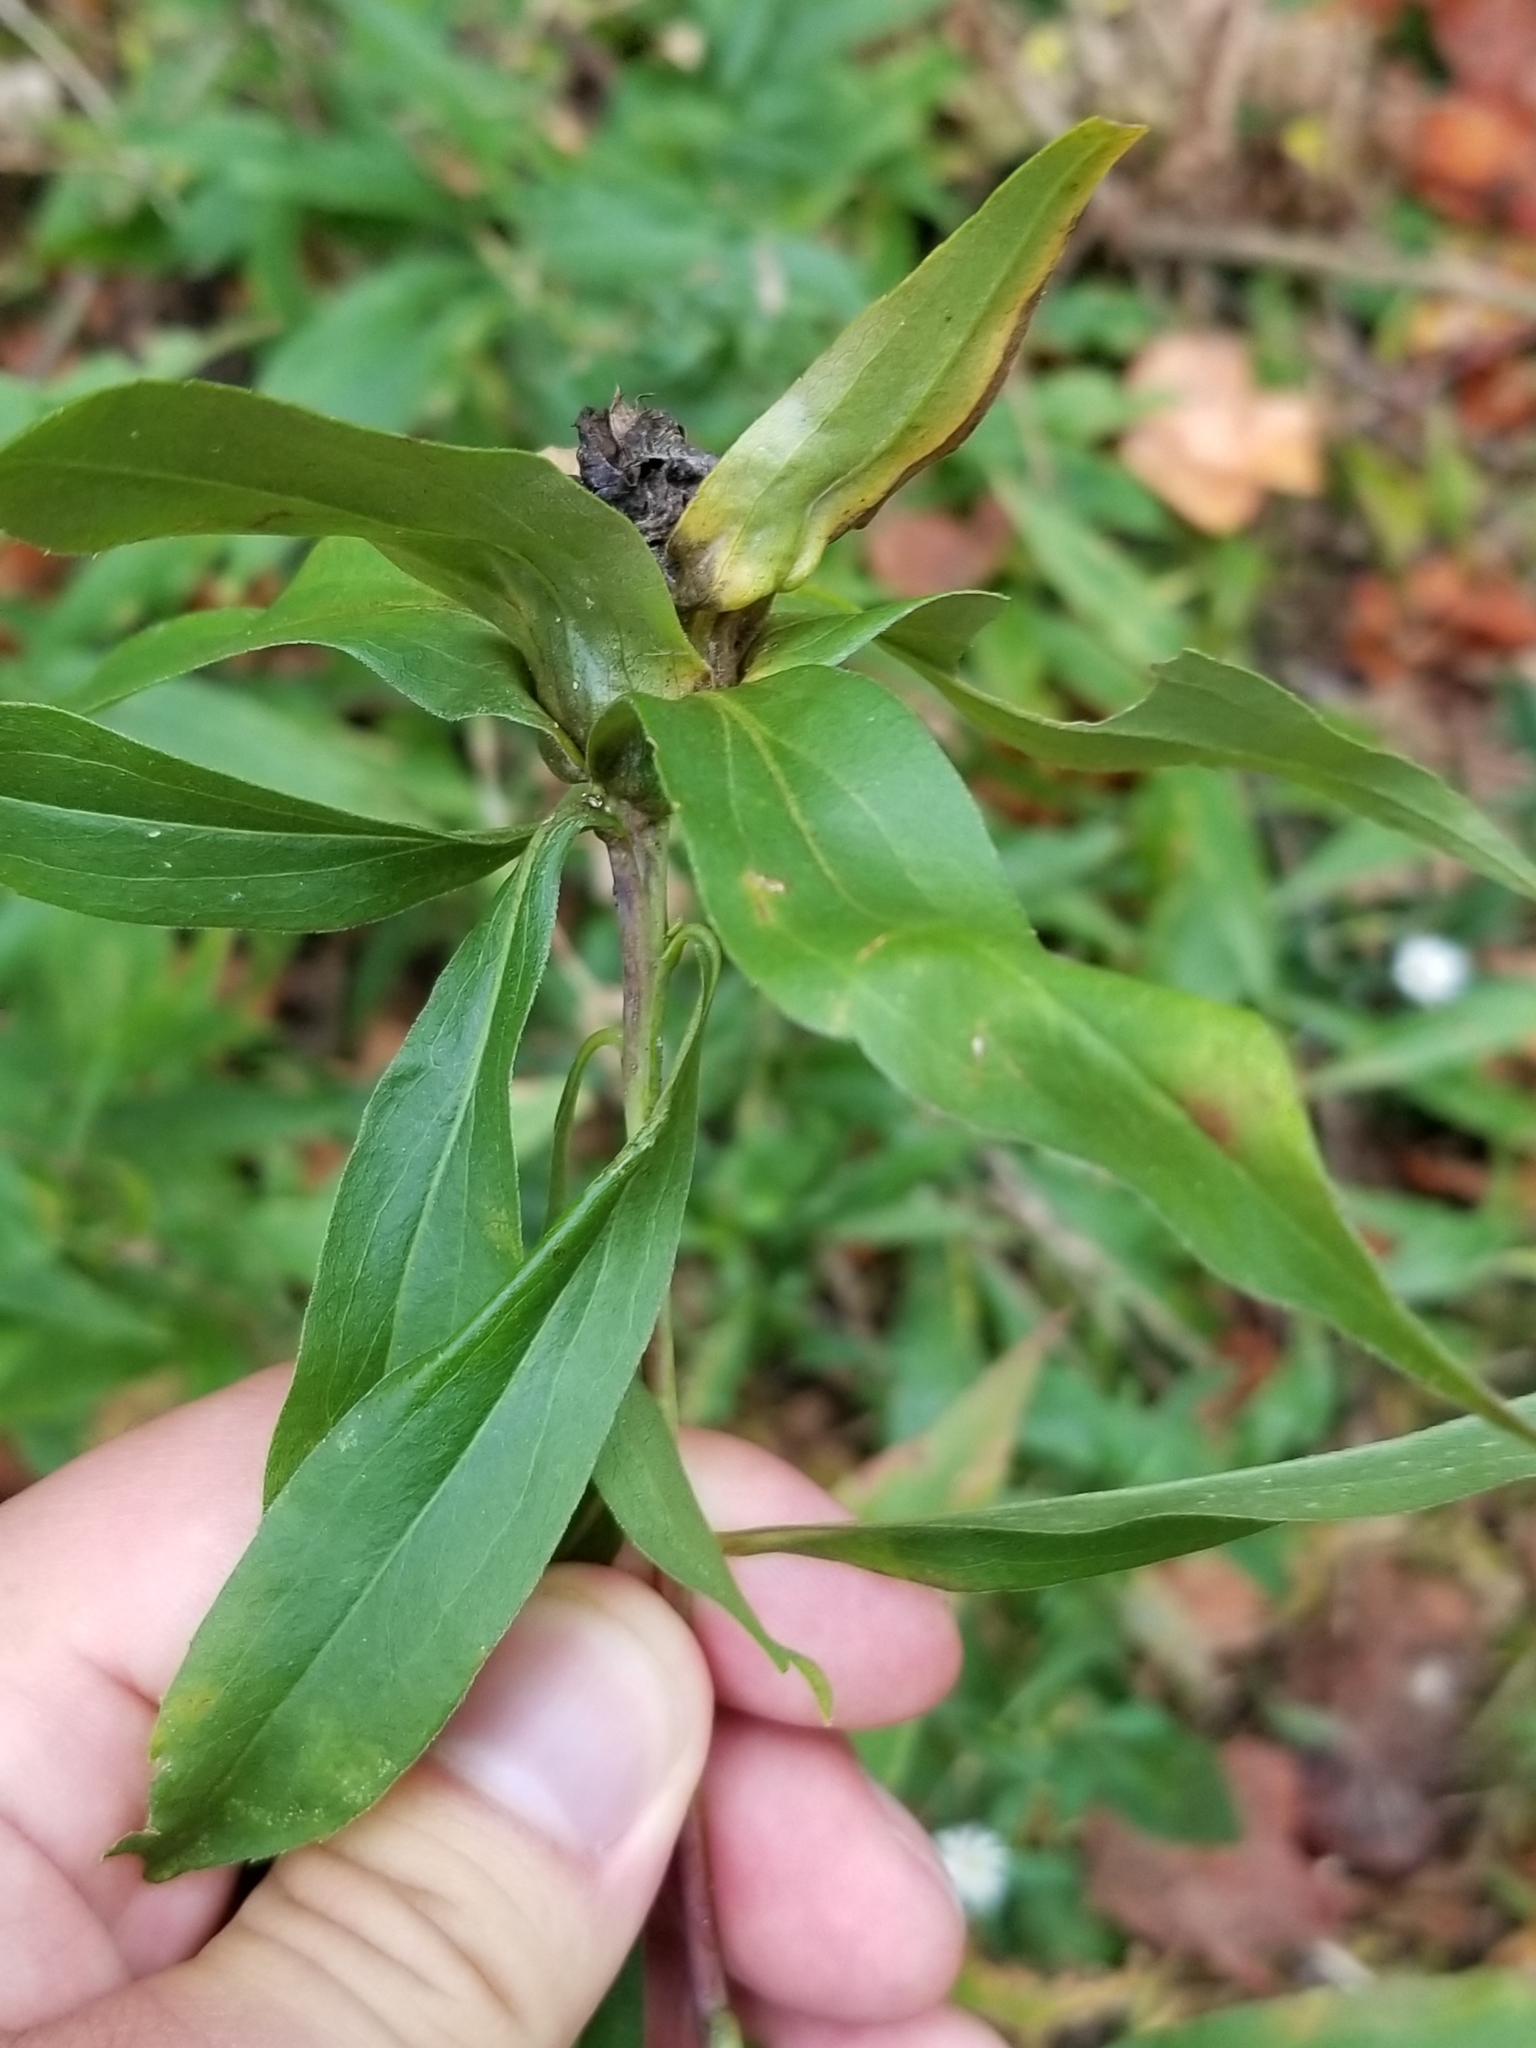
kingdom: Animalia
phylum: Arthropoda
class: Insecta
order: Diptera
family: Cecidomyiidae
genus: Dasineura
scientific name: Dasineura folliculi
